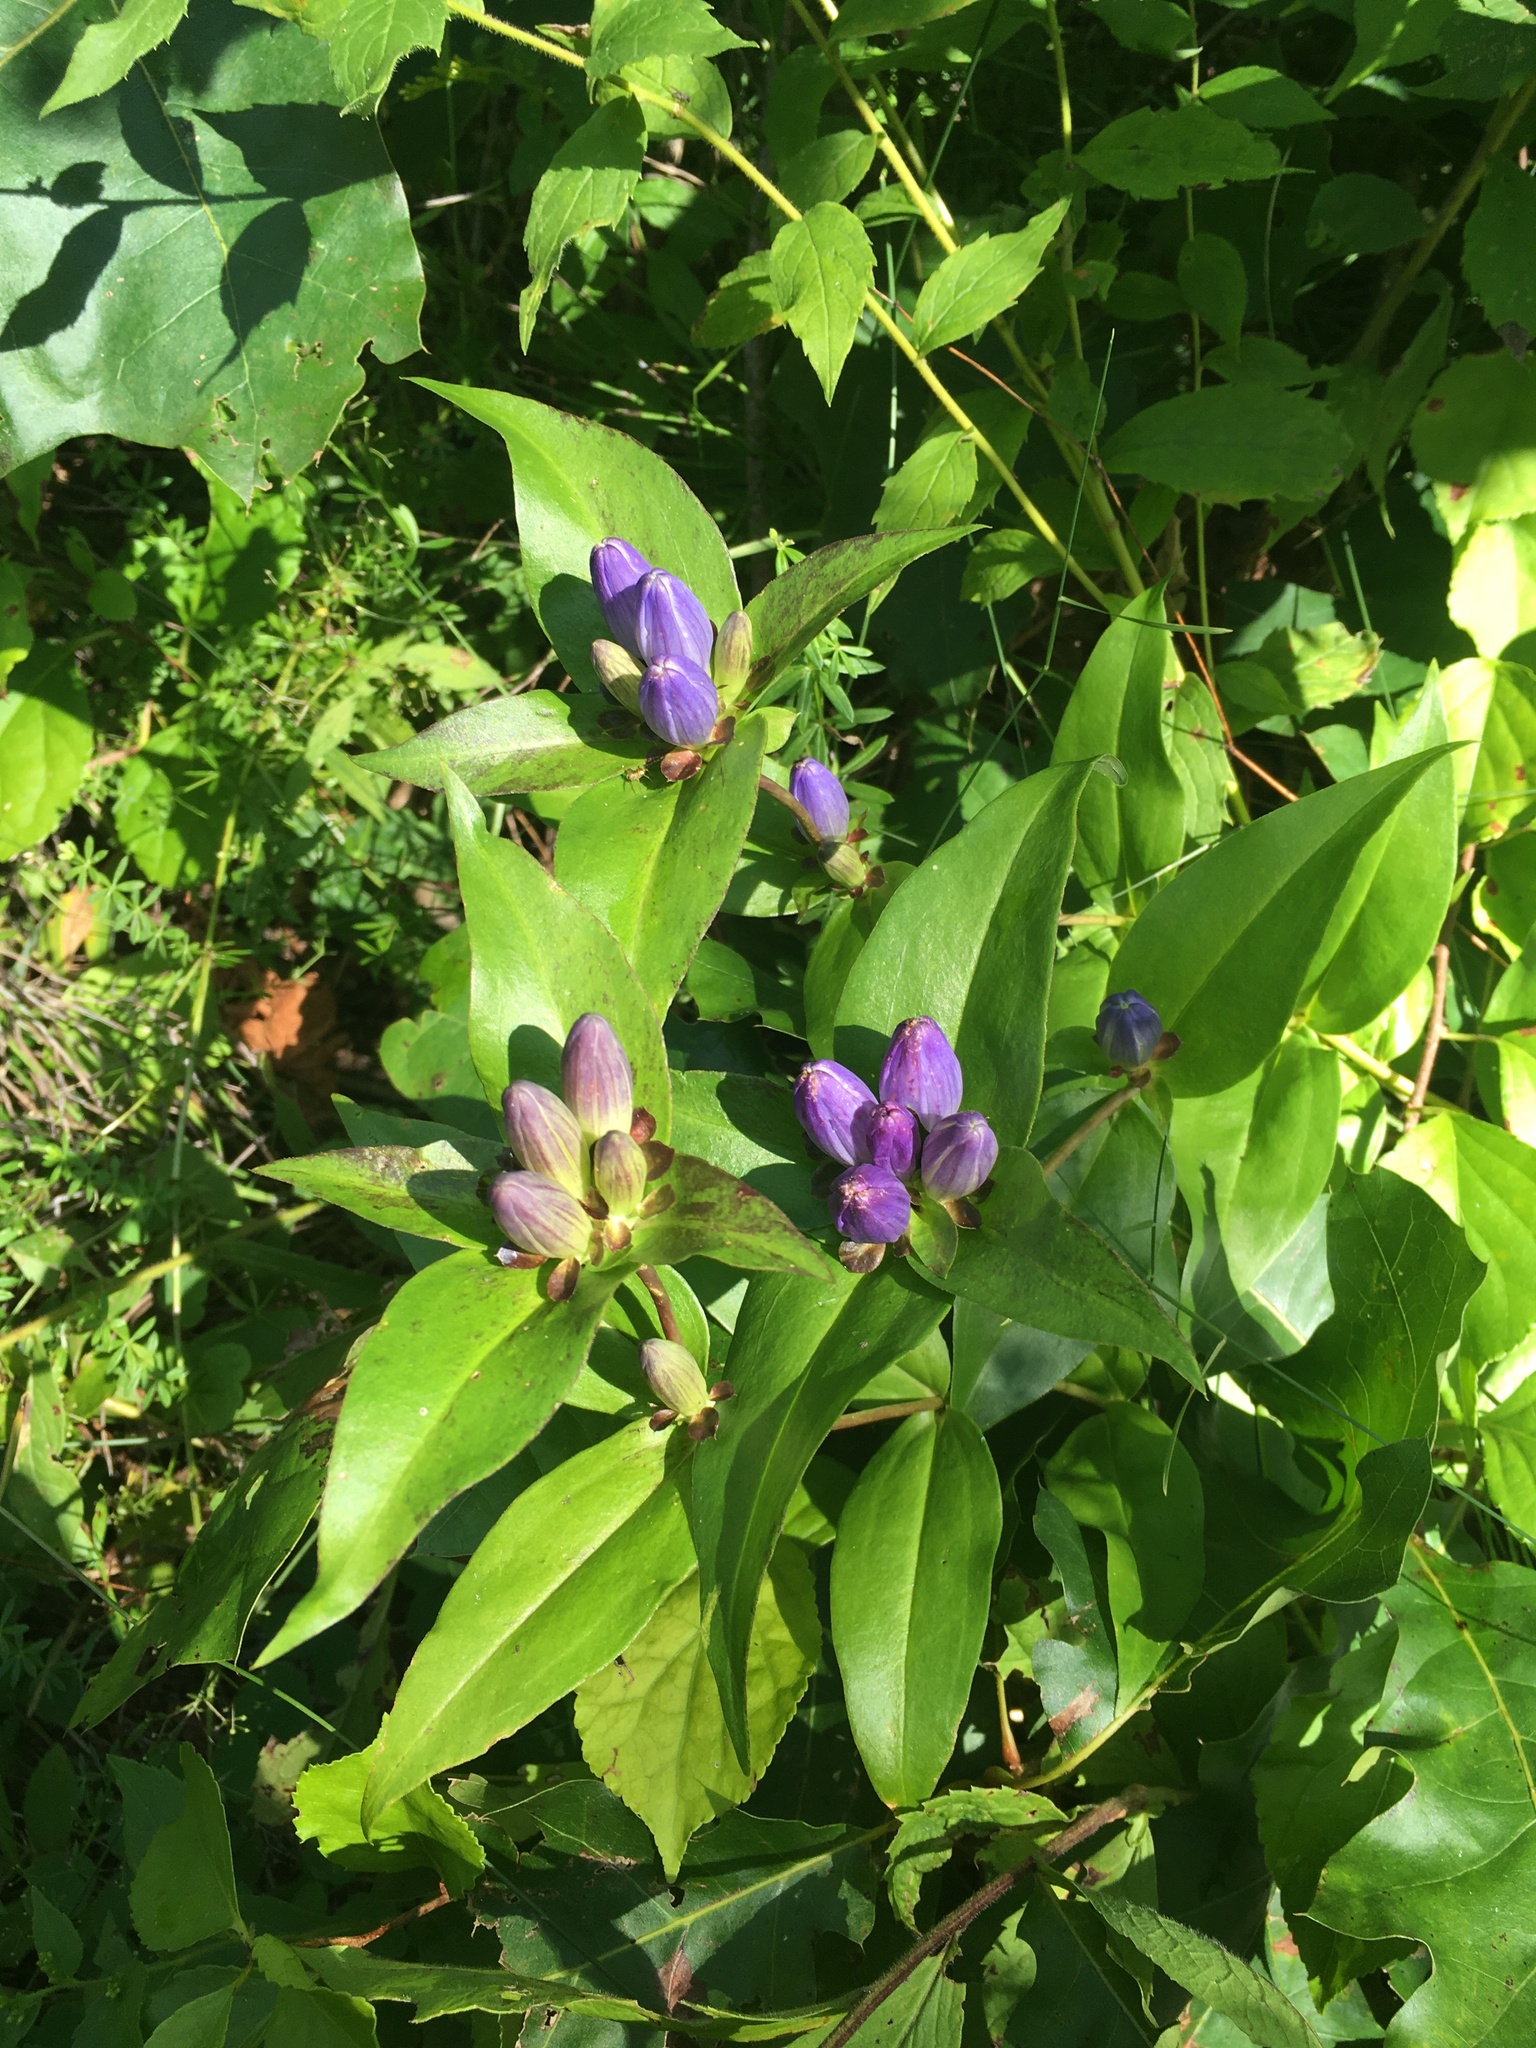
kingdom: Plantae
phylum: Tracheophyta
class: Magnoliopsida
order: Gentianales
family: Gentianaceae
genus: Gentiana
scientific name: Gentiana clausa
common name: Blind gentian
